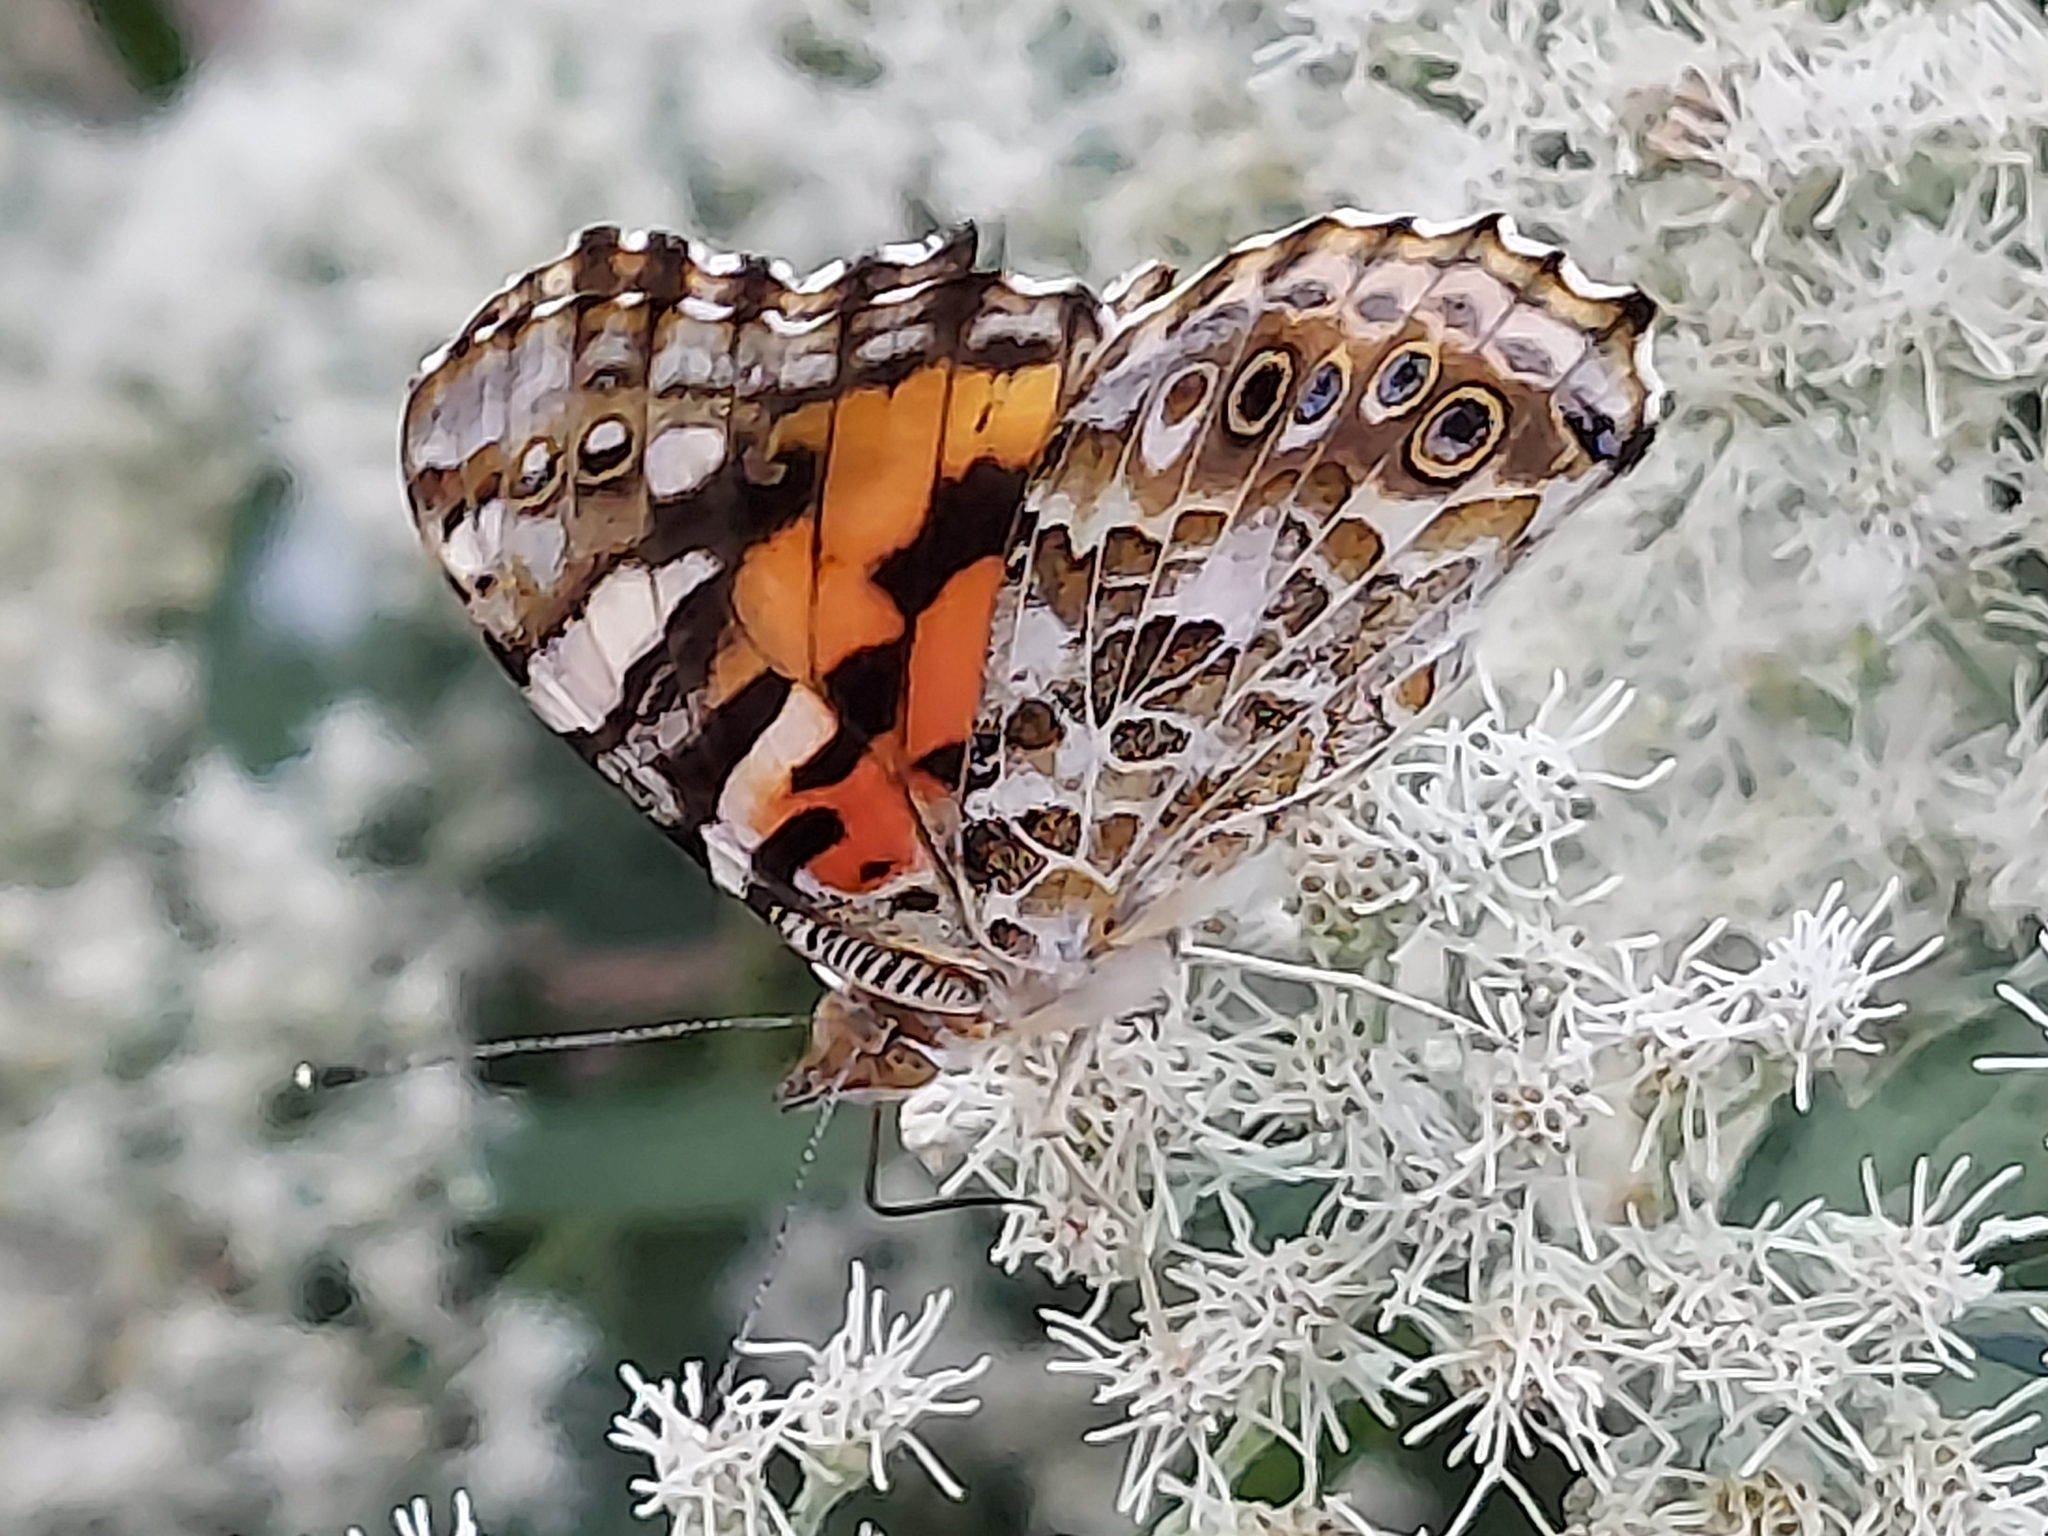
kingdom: Animalia
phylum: Arthropoda
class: Insecta
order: Lepidoptera
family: Nymphalidae
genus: Vanessa
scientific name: Vanessa cardui
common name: Painted lady
